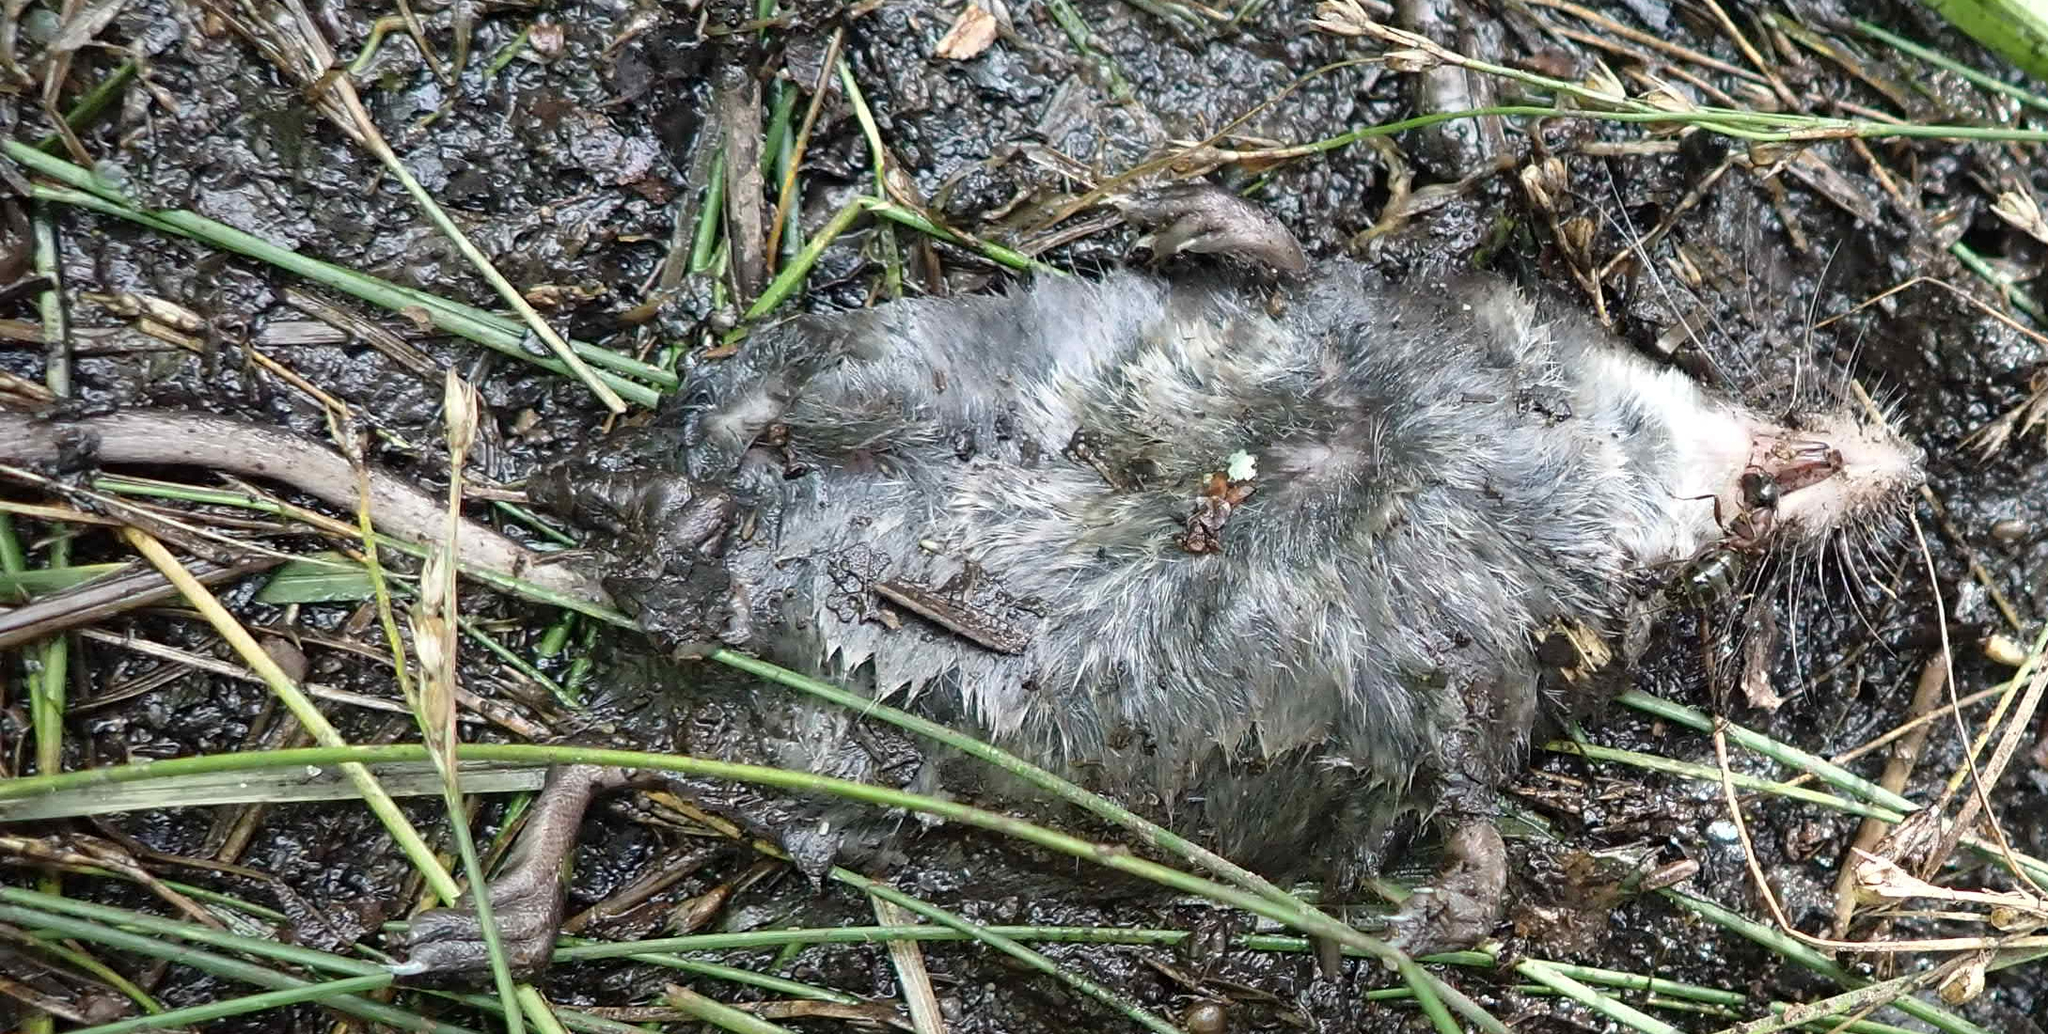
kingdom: Animalia
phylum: Chordata
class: Mammalia
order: Soricomorpha
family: Soricidae
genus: Sorex
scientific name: Sorex palustris
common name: American water shrew
